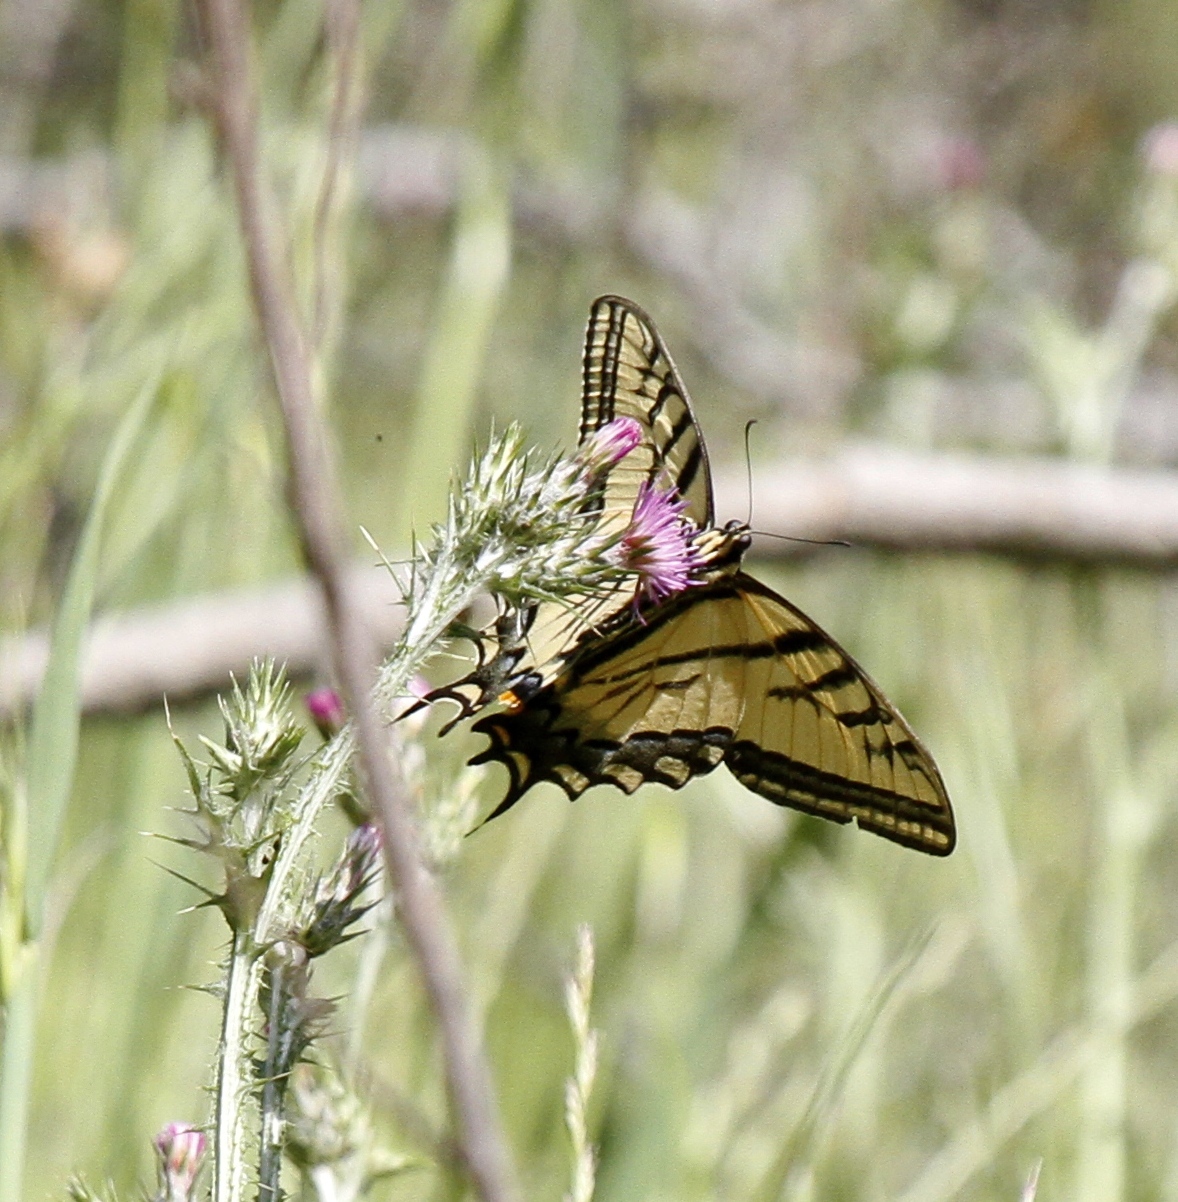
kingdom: Animalia
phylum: Arthropoda
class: Insecta
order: Lepidoptera
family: Papilionidae
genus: Papilio
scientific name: Papilio multicaudata
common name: Two-tailed tiger swallowtail
